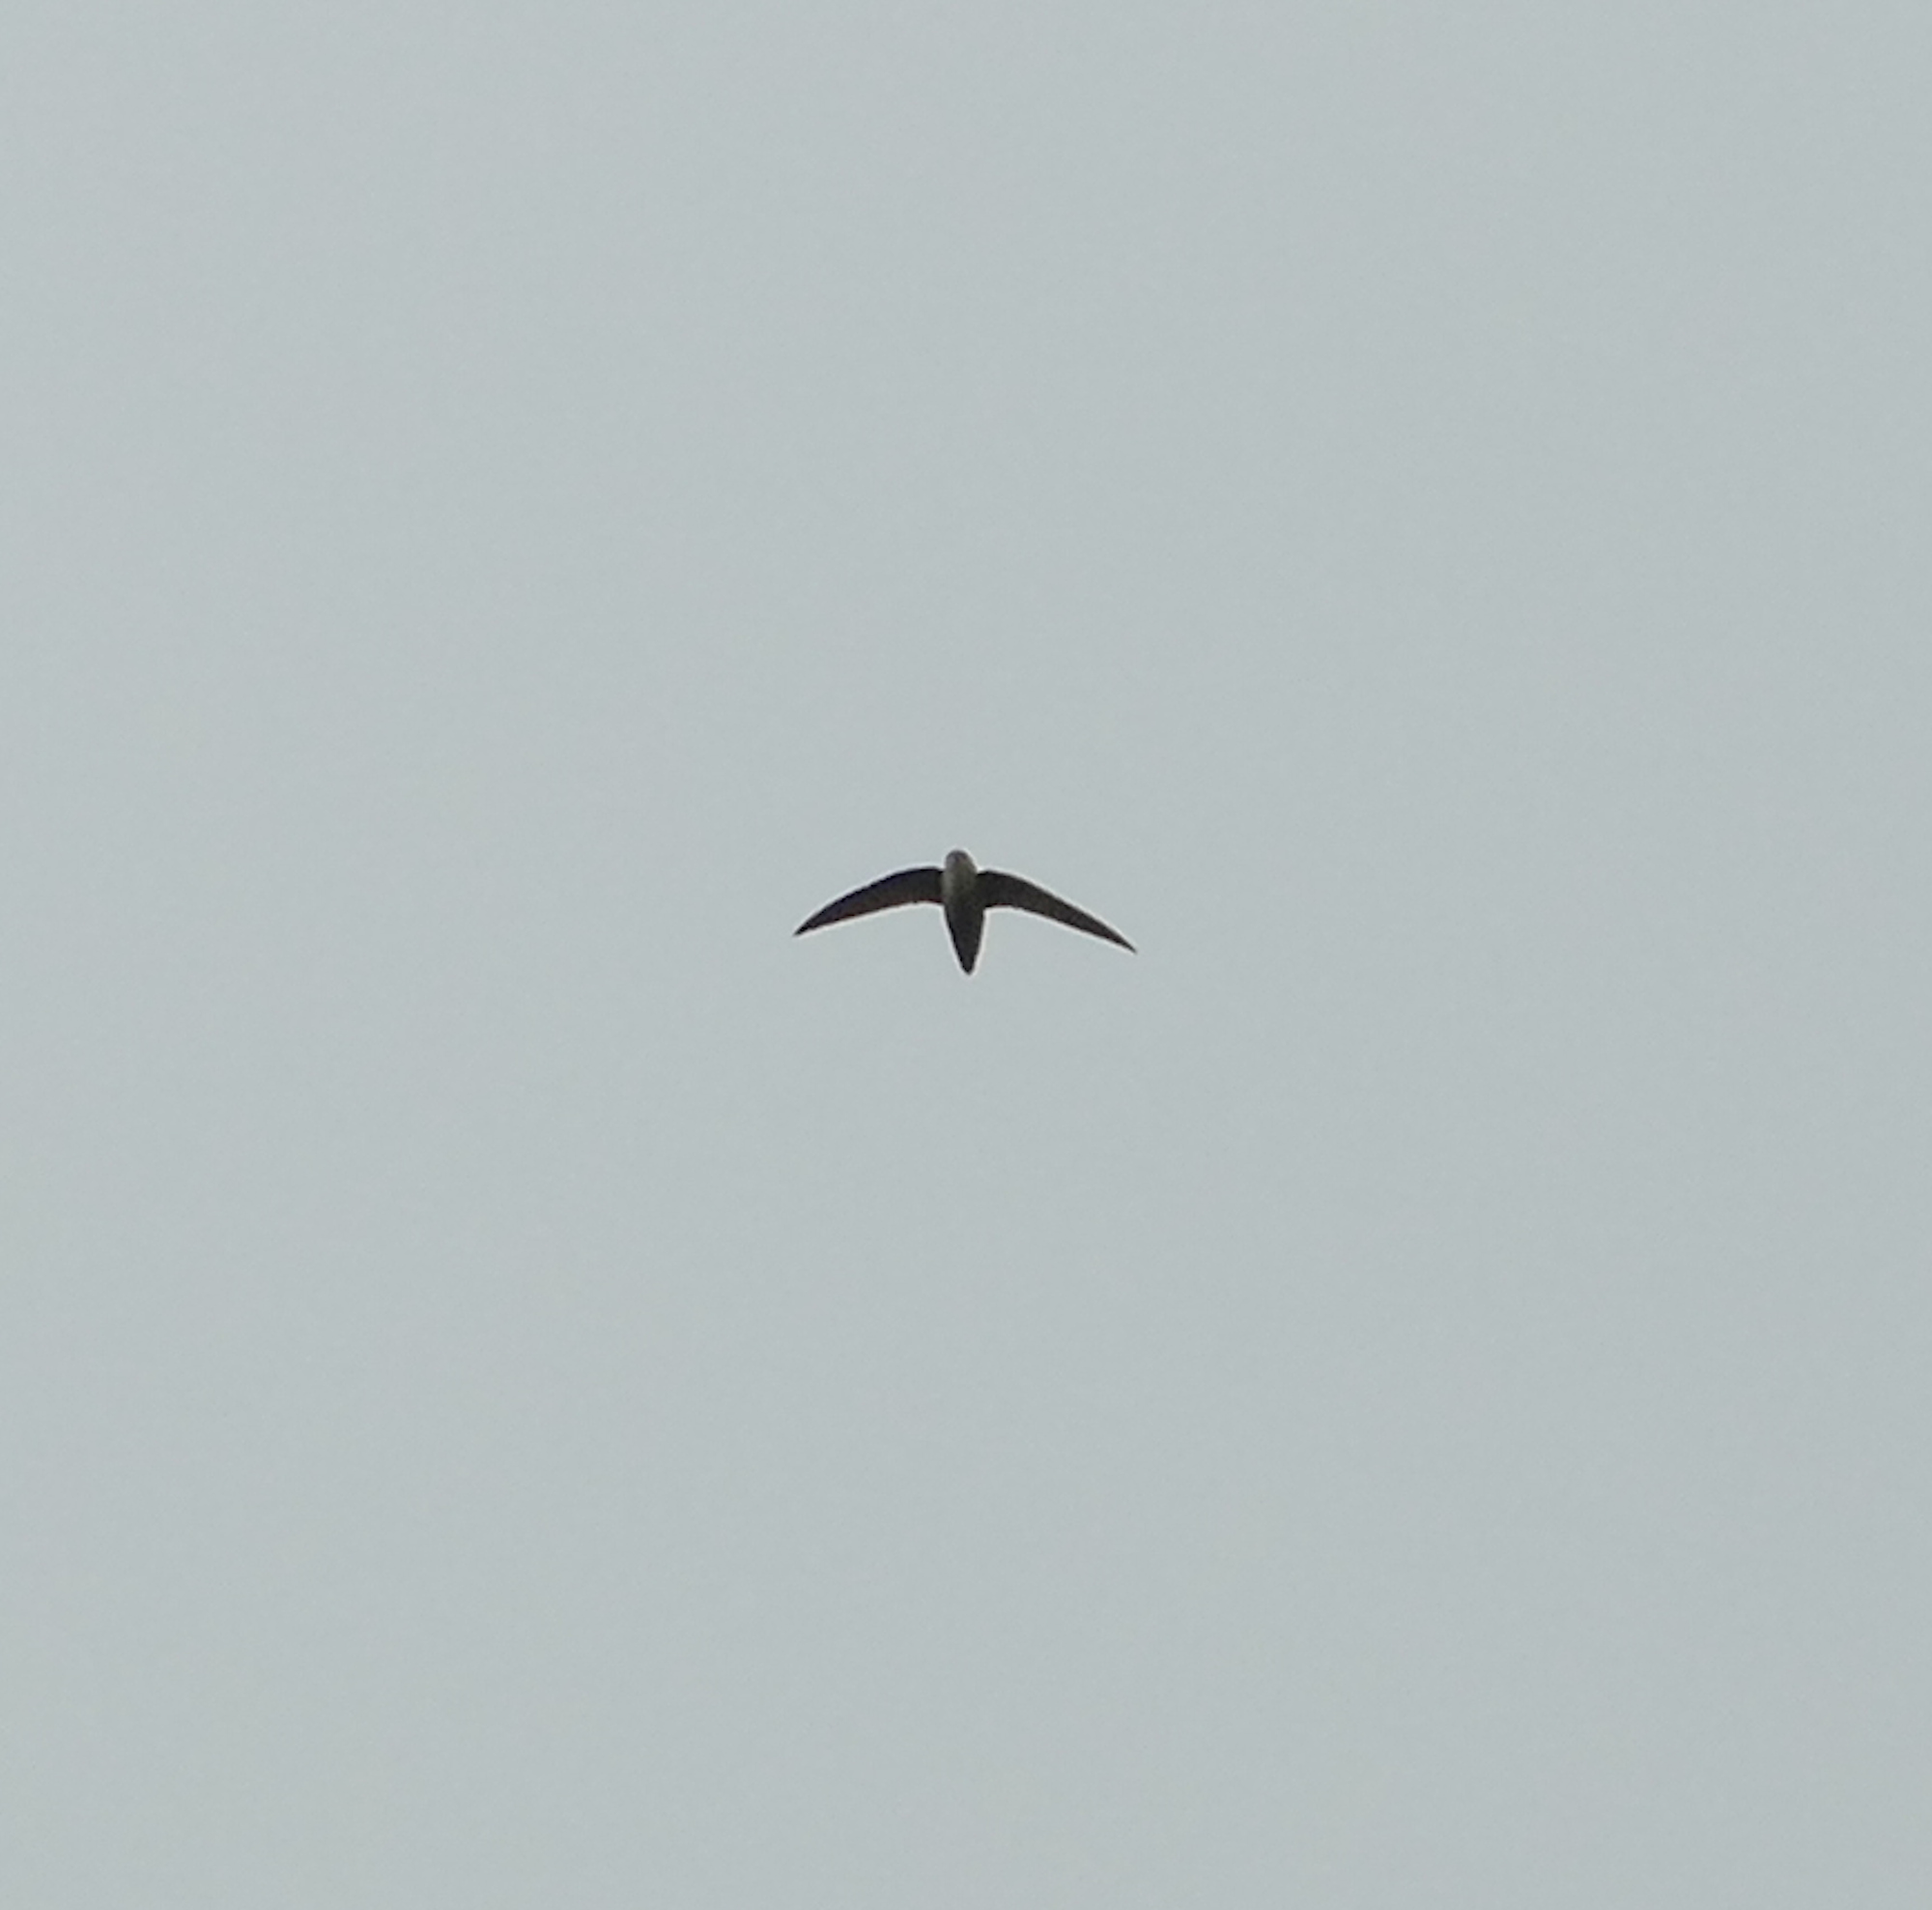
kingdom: Animalia
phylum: Chordata
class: Aves
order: Apodiformes
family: Apodidae
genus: Chaetura
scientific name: Chaetura pelagica
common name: Chimney swift
